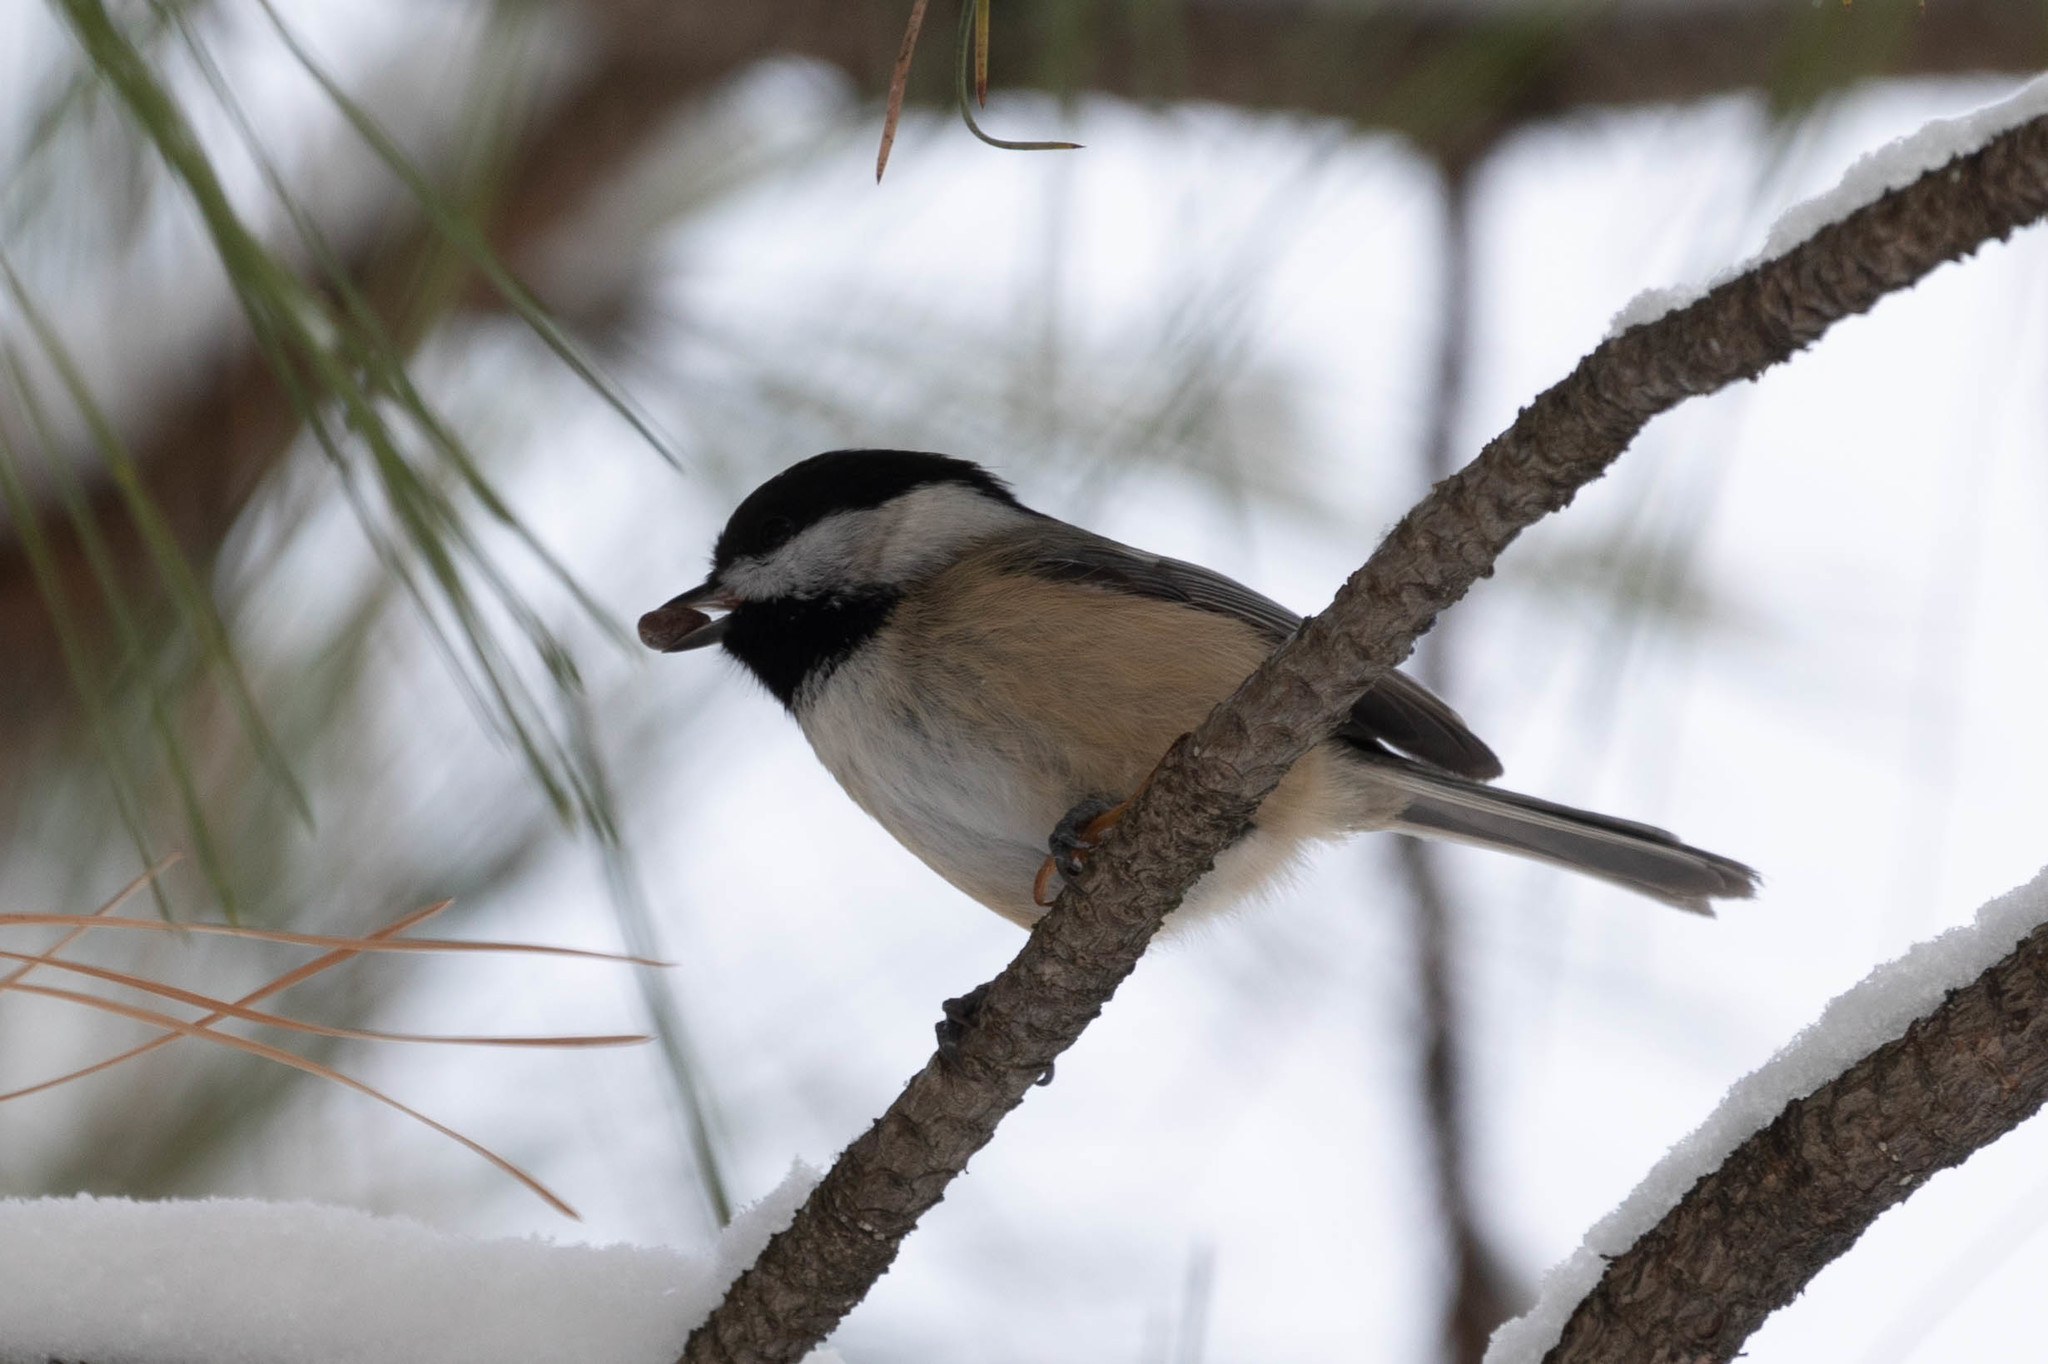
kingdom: Animalia
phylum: Chordata
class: Aves
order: Passeriformes
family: Paridae
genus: Poecile
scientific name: Poecile atricapillus
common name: Black-capped chickadee
